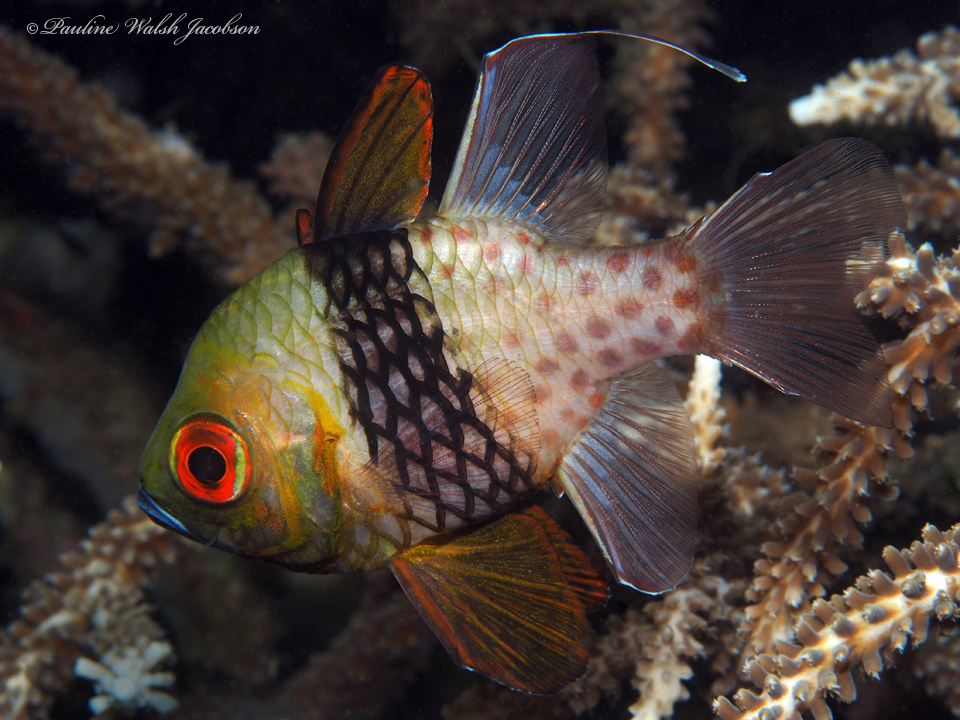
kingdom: Animalia
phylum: Chordata
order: Perciformes
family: Apogonidae
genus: Sphaeramia
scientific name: Sphaeramia nematoptera
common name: Pajama cardinalfish
